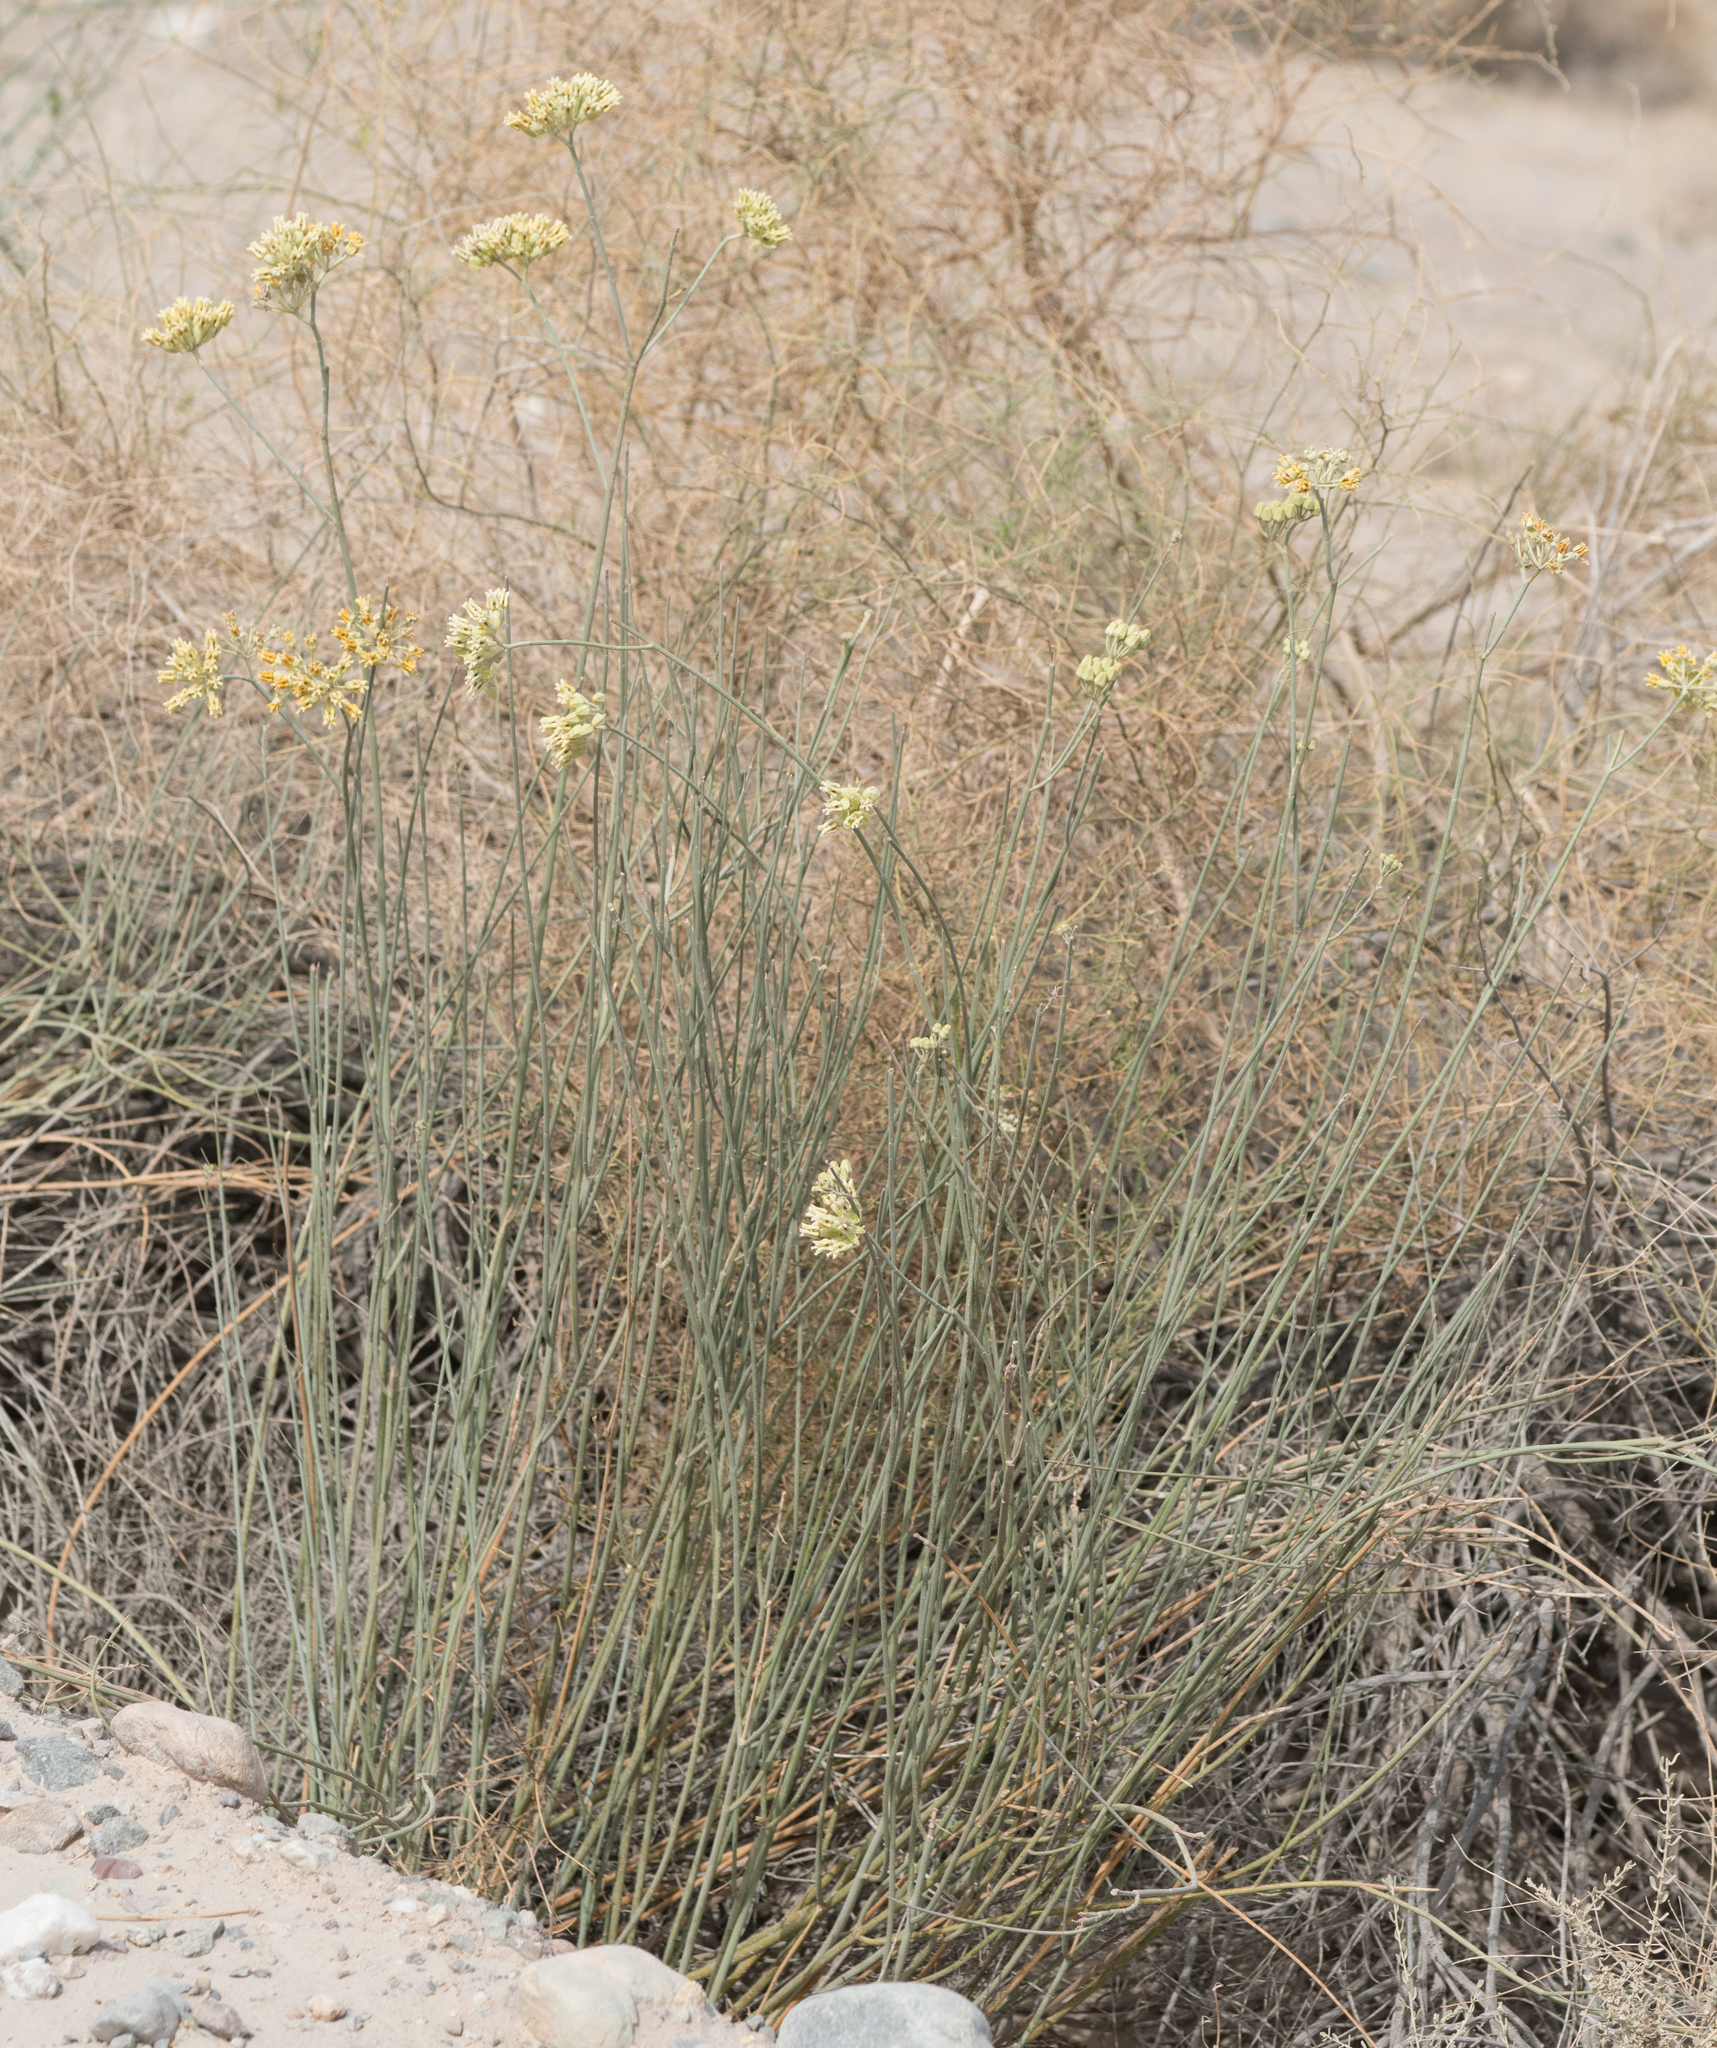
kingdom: Plantae
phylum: Tracheophyta
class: Magnoliopsida
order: Gentianales
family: Apocynaceae
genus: Asclepias
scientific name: Asclepias subulata
